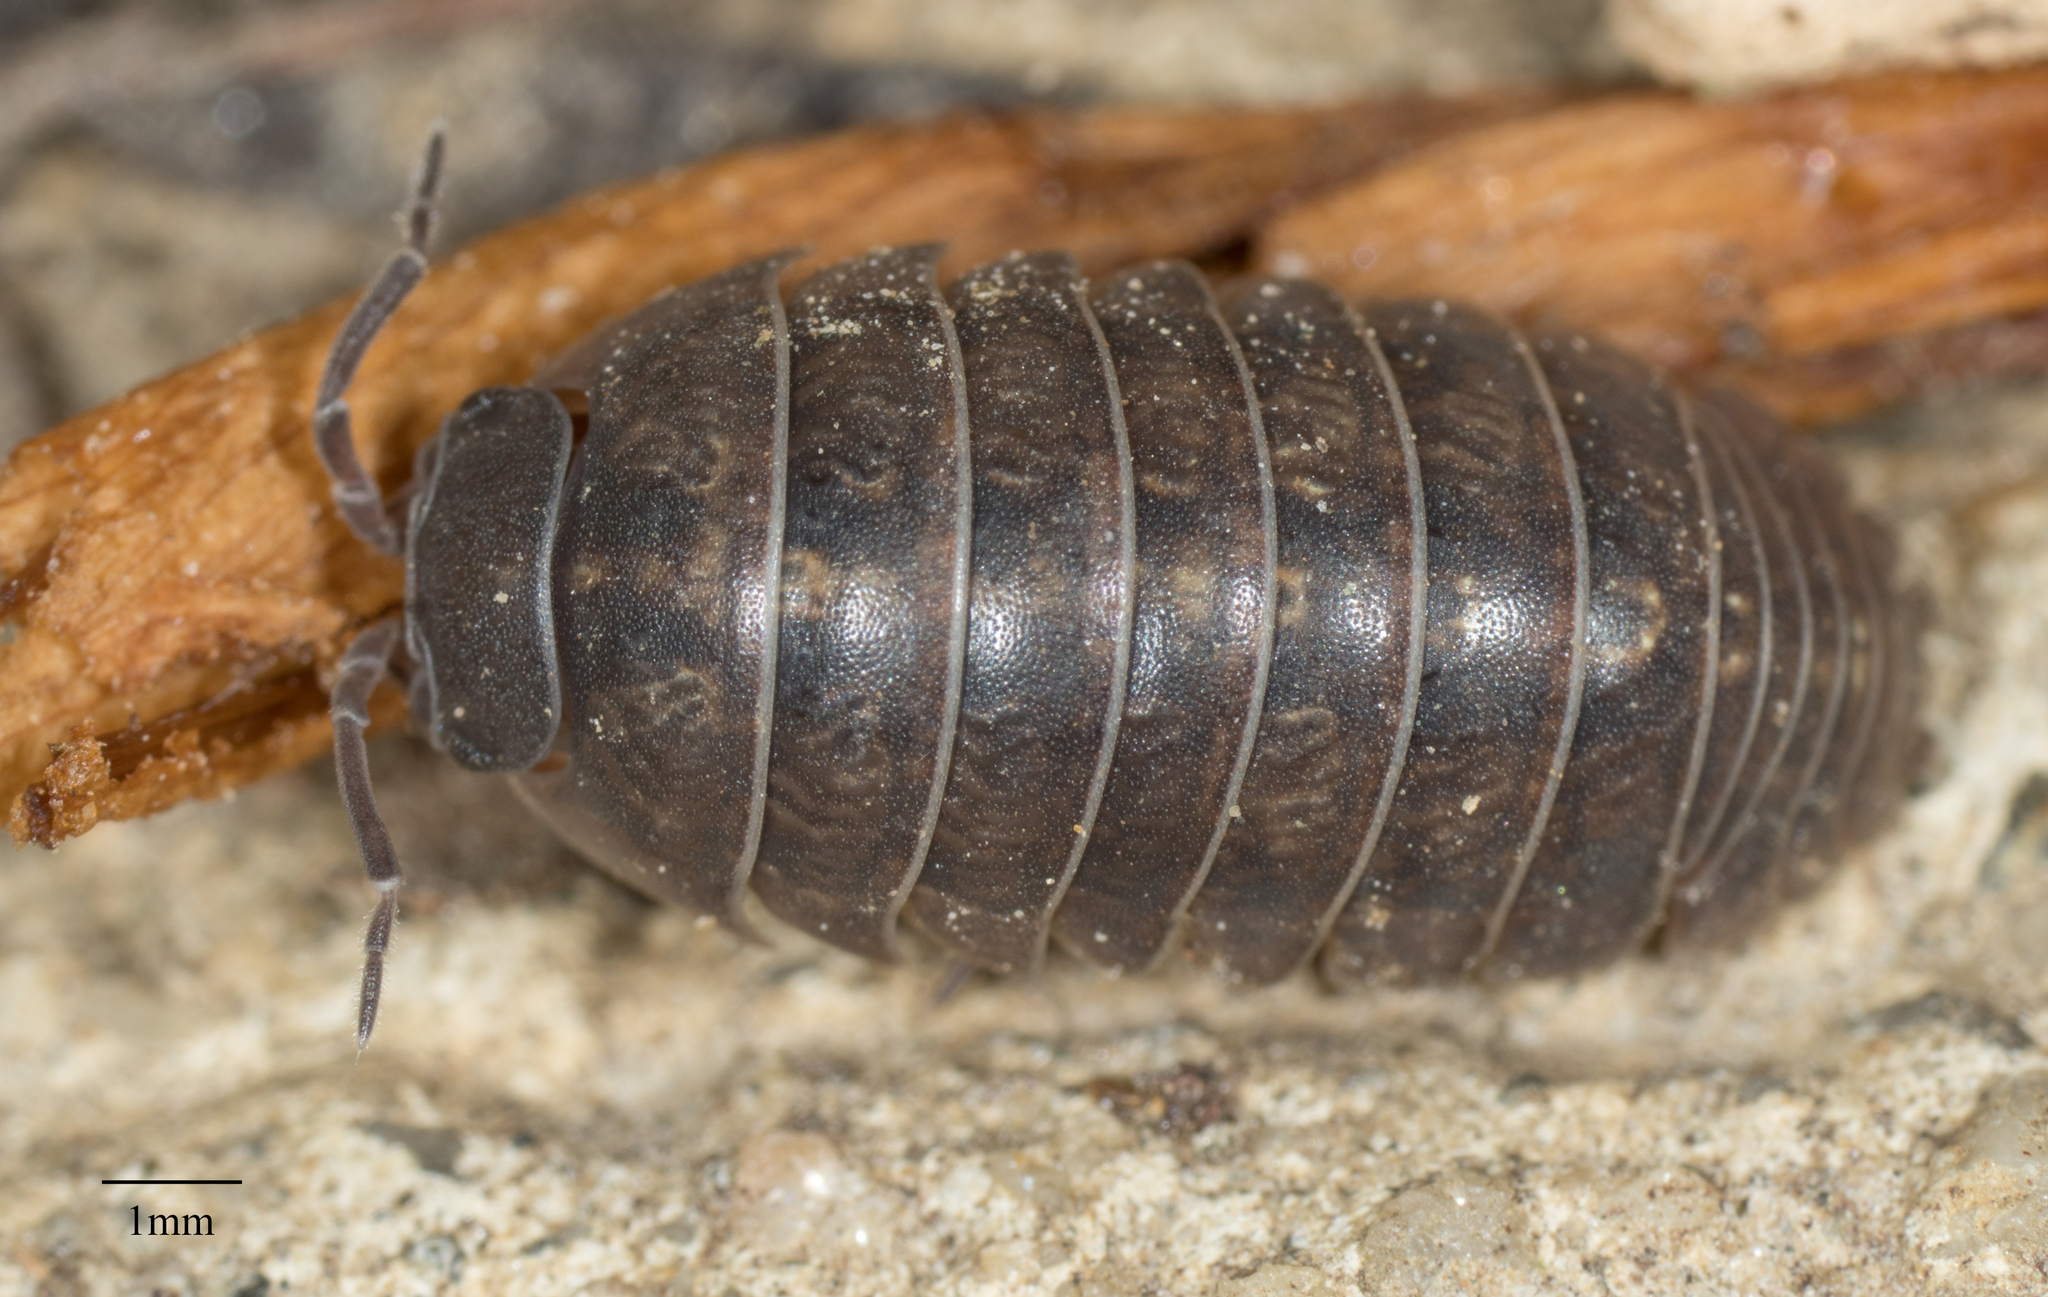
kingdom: Animalia
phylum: Arthropoda
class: Malacostraca
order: Isopoda
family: Armadillidiidae
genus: Armadillidium
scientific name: Armadillidium vulgare
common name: Common pill woodlouse
